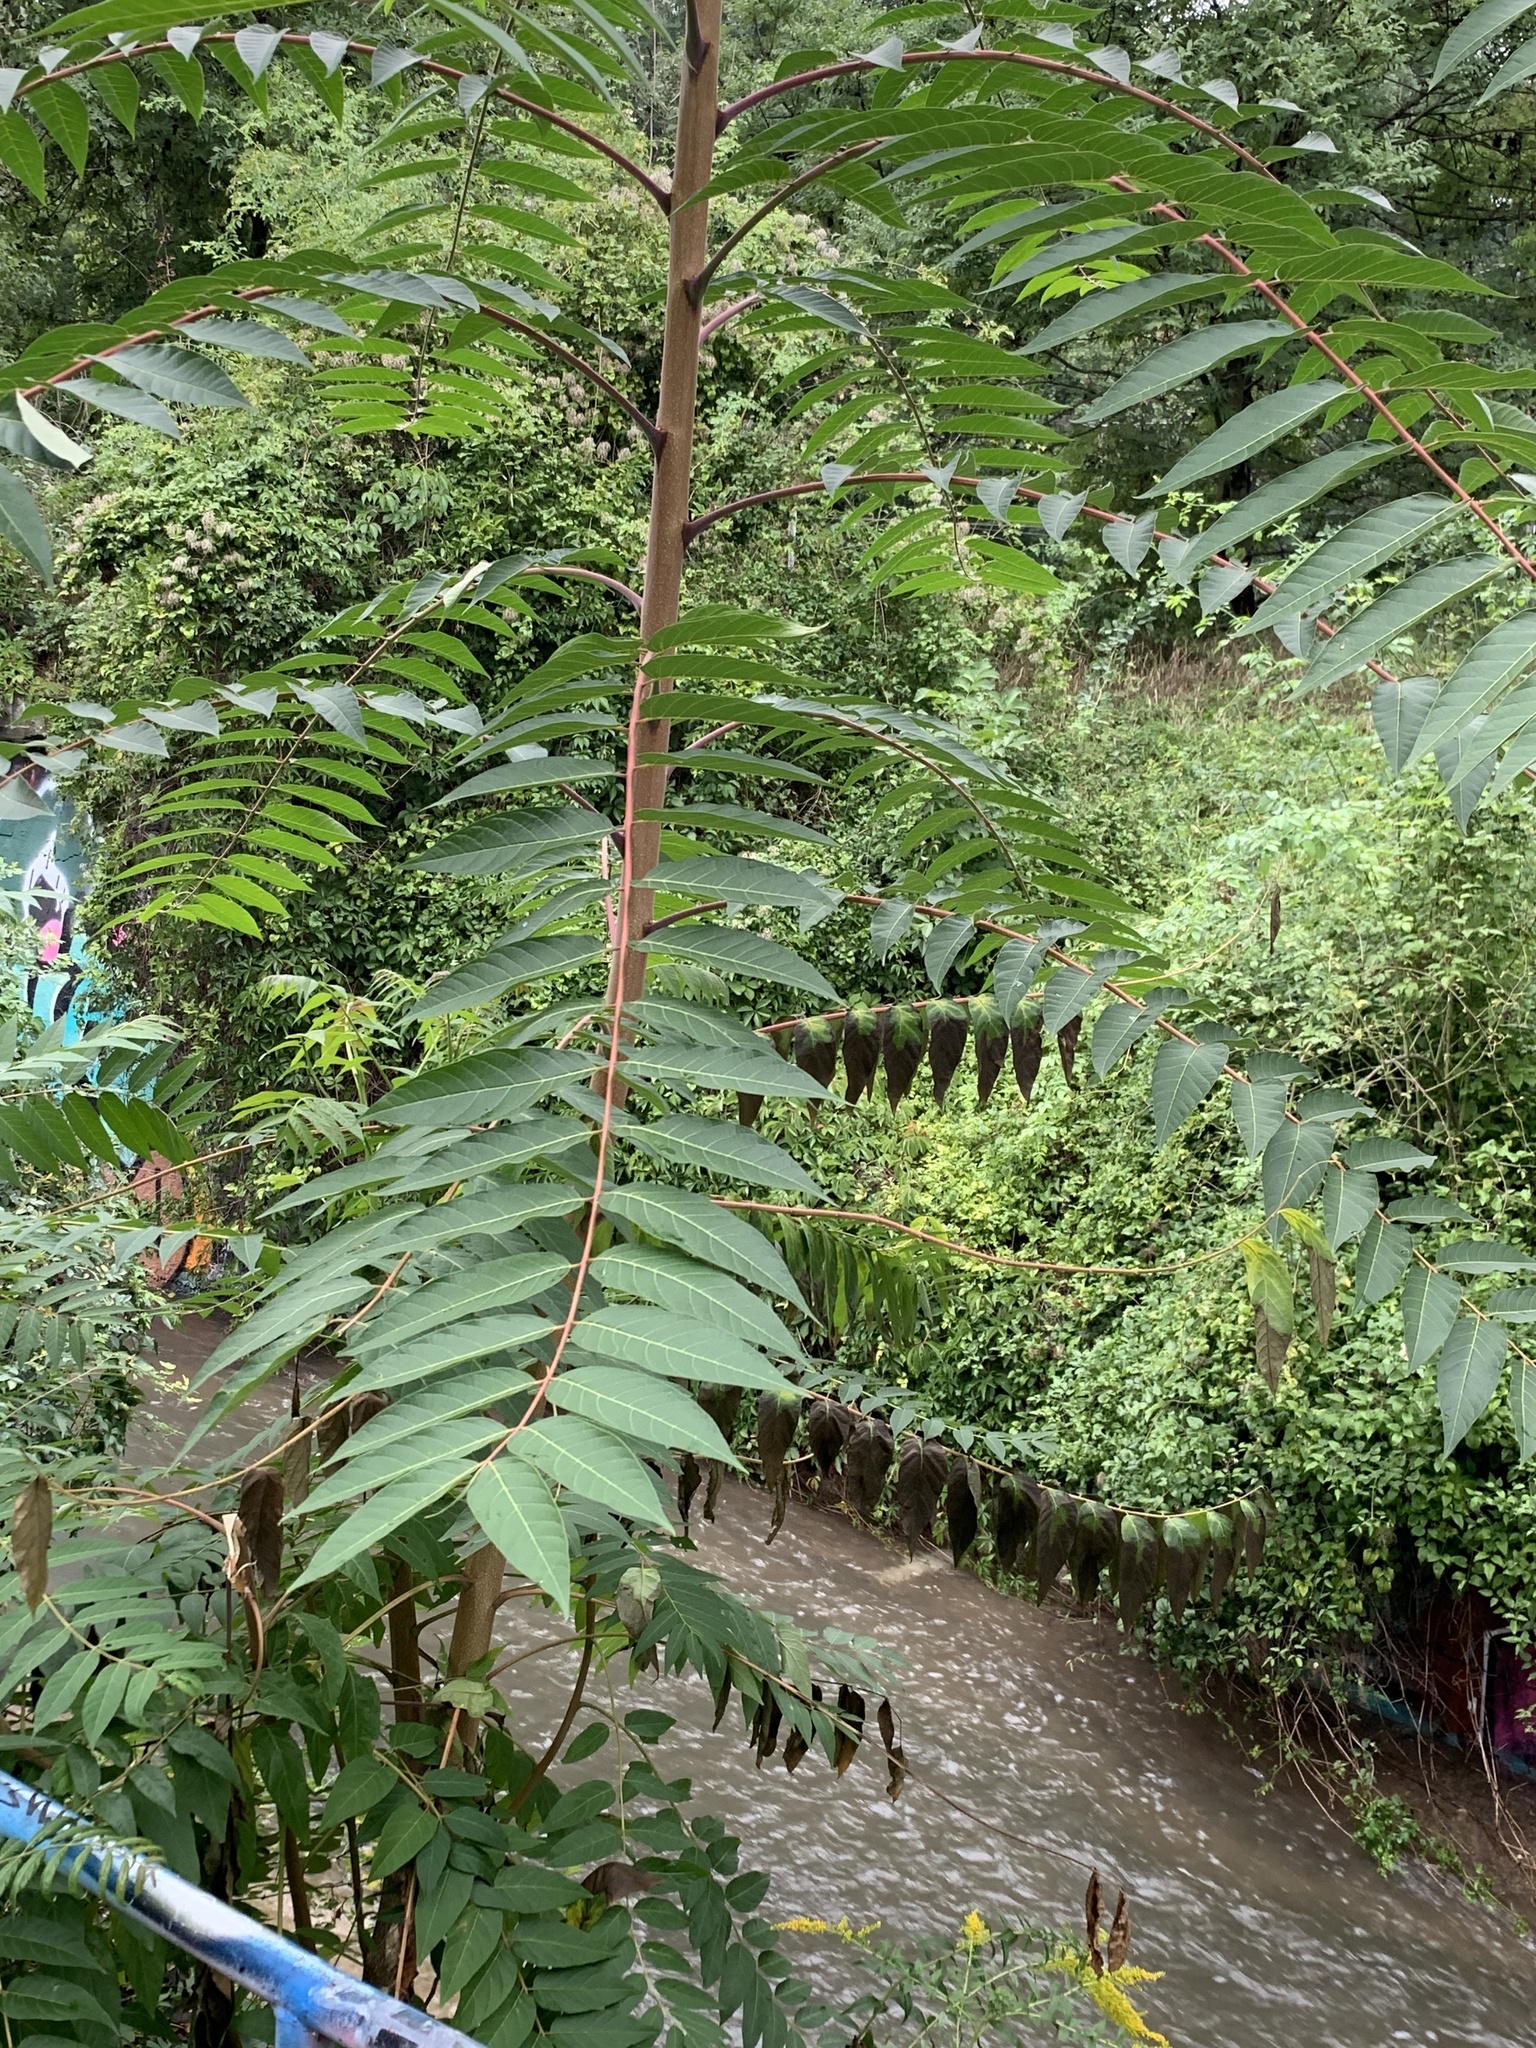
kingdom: Plantae
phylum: Tracheophyta
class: Magnoliopsida
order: Sapindales
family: Simaroubaceae
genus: Ailanthus
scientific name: Ailanthus altissima
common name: Tree-of-heaven
